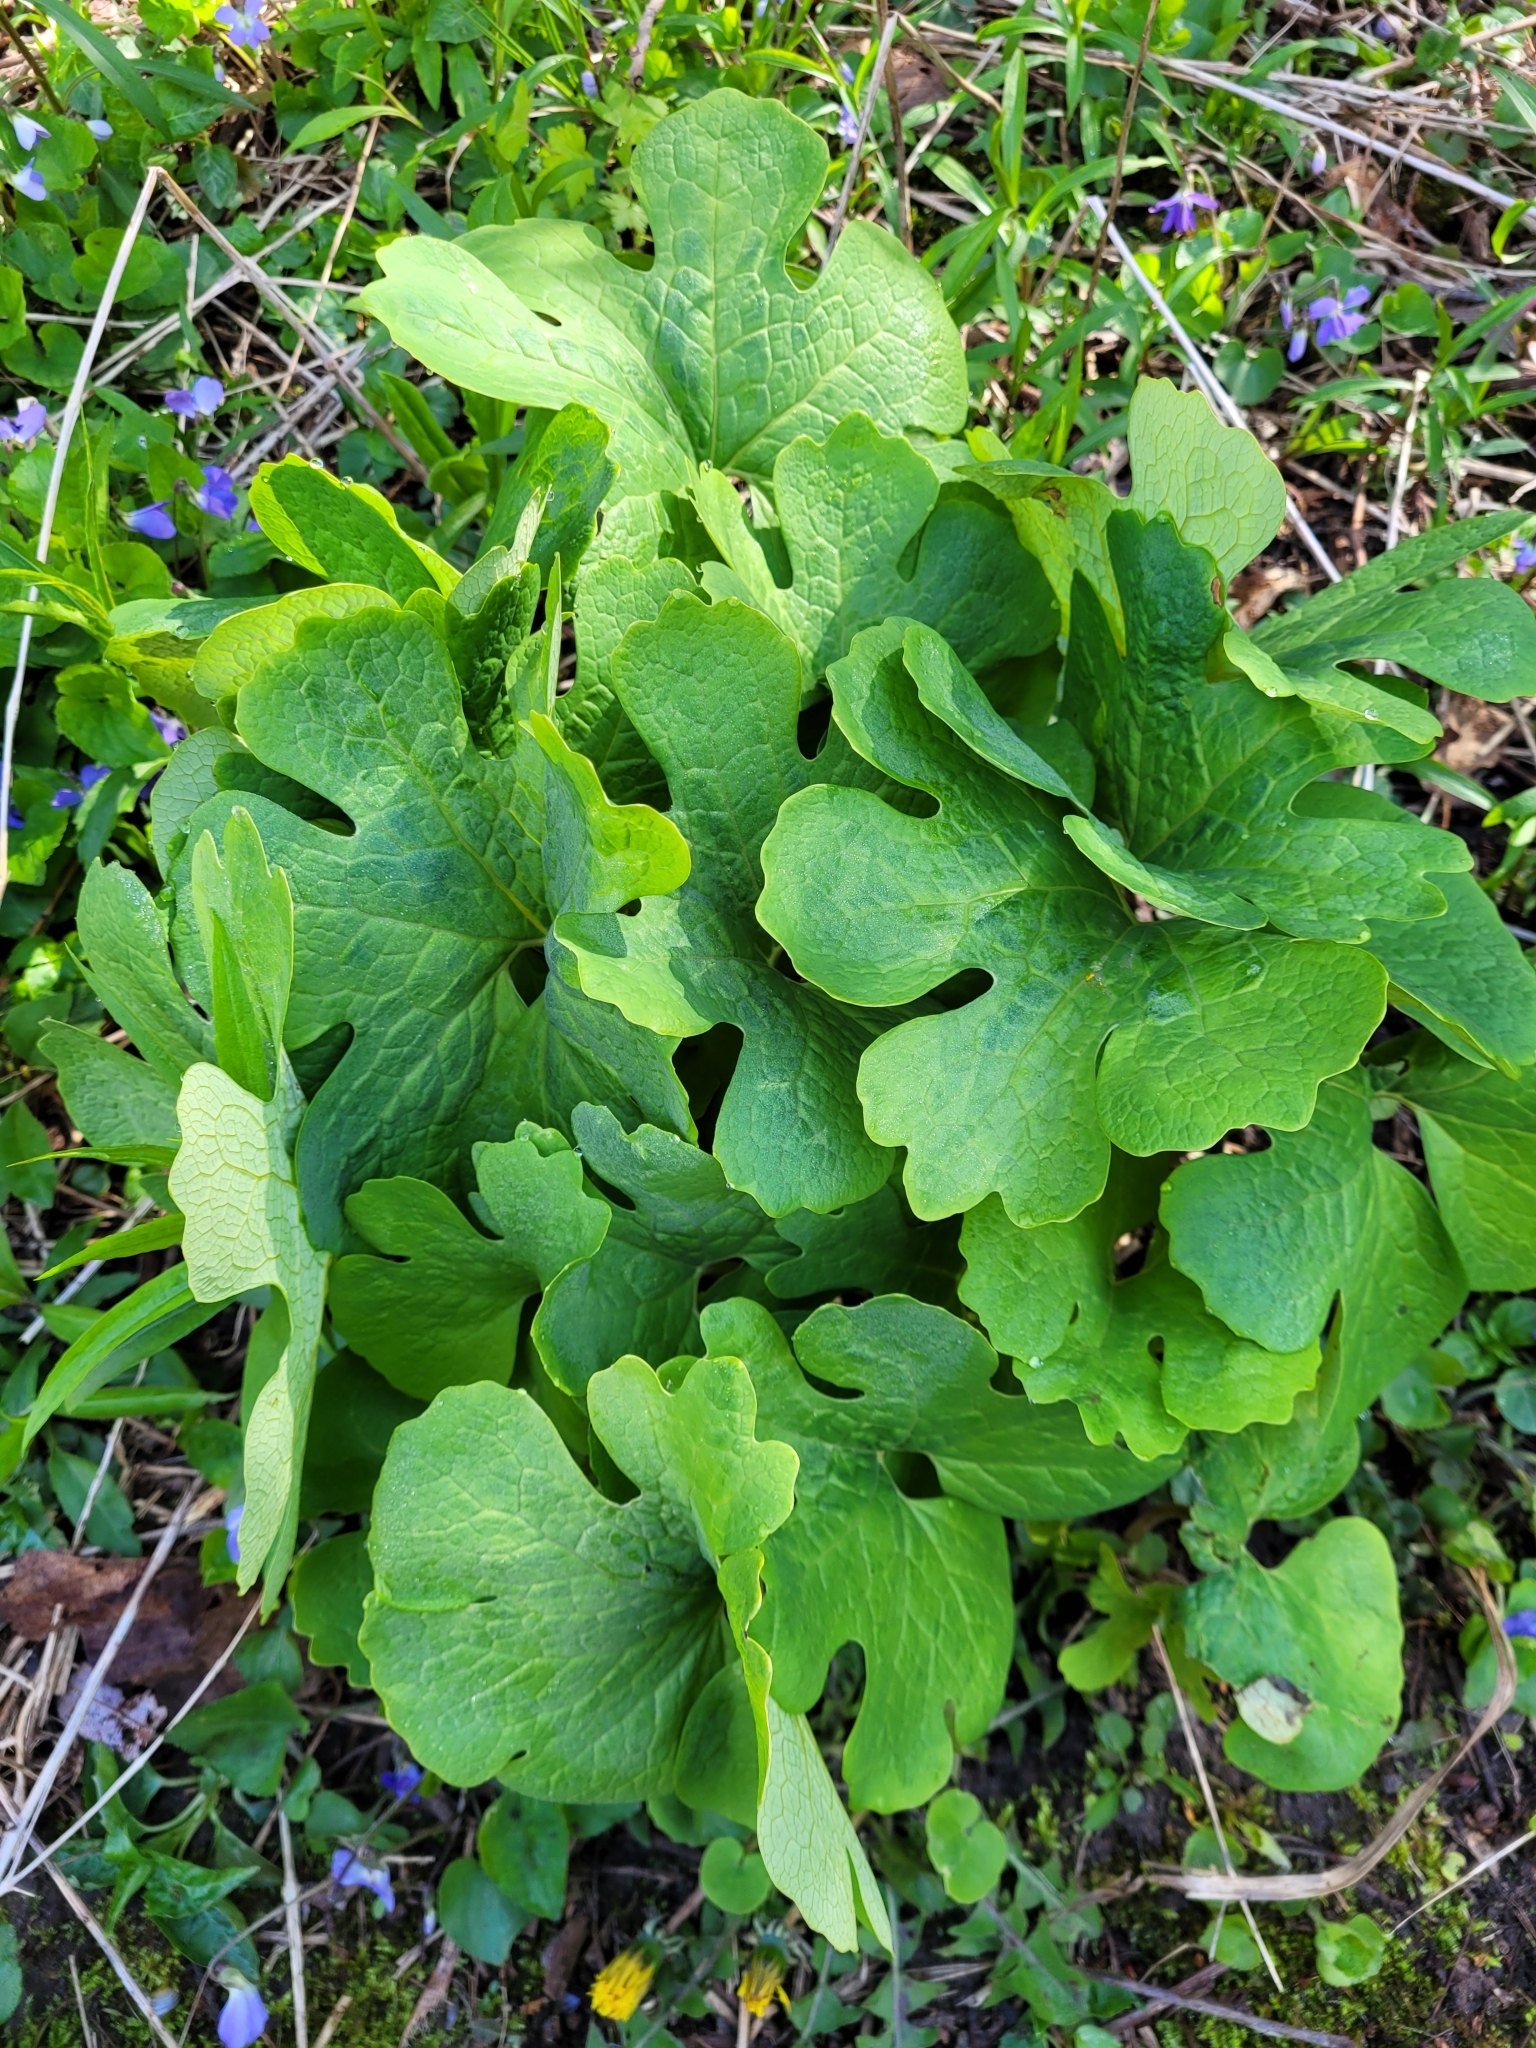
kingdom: Plantae
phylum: Tracheophyta
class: Magnoliopsida
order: Ranunculales
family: Papaveraceae
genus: Sanguinaria
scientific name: Sanguinaria canadensis
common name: Bloodroot
